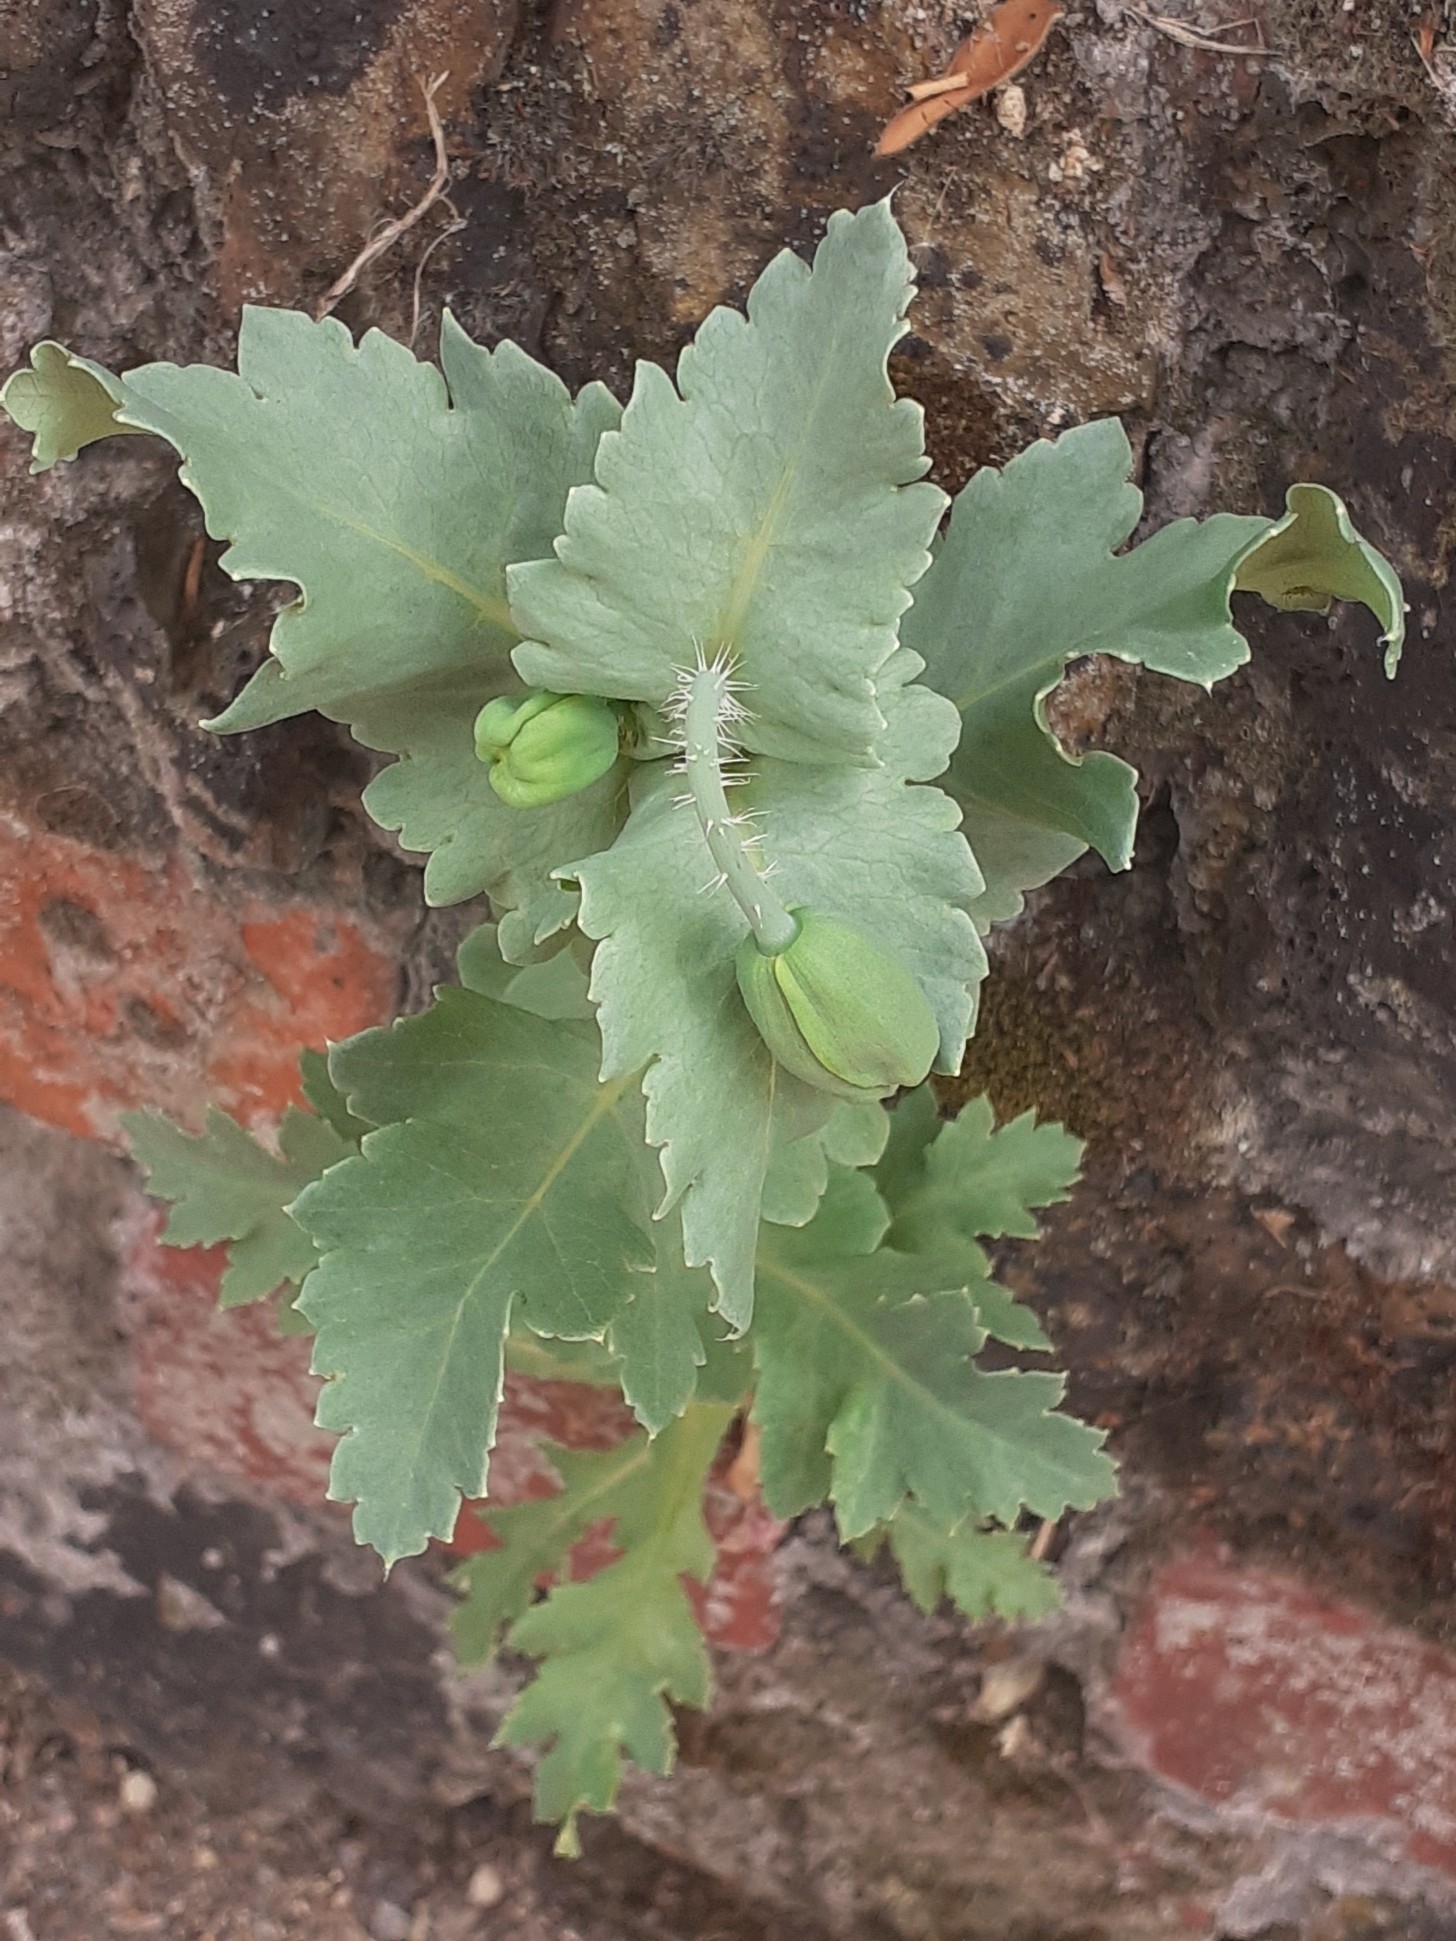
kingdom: Plantae
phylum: Tracheophyta
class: Magnoliopsida
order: Ranunculales
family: Papaveraceae
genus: Papaver
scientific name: Papaver somniferum
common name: Opium poppy
